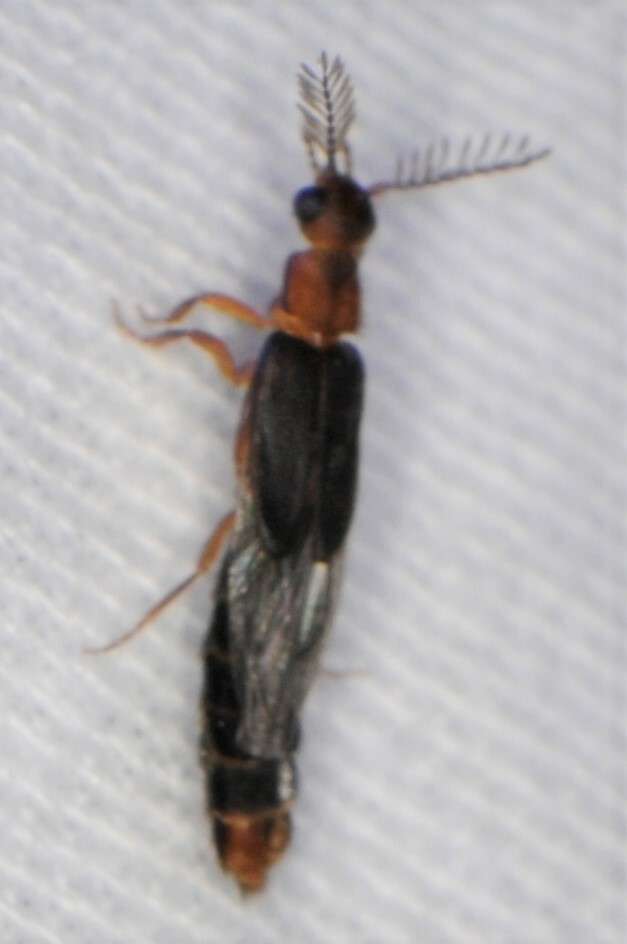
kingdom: Animalia
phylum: Arthropoda
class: Insecta
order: Coleoptera
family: Phengodidae
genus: Distremocephalus
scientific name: Distremocephalus opaculus
